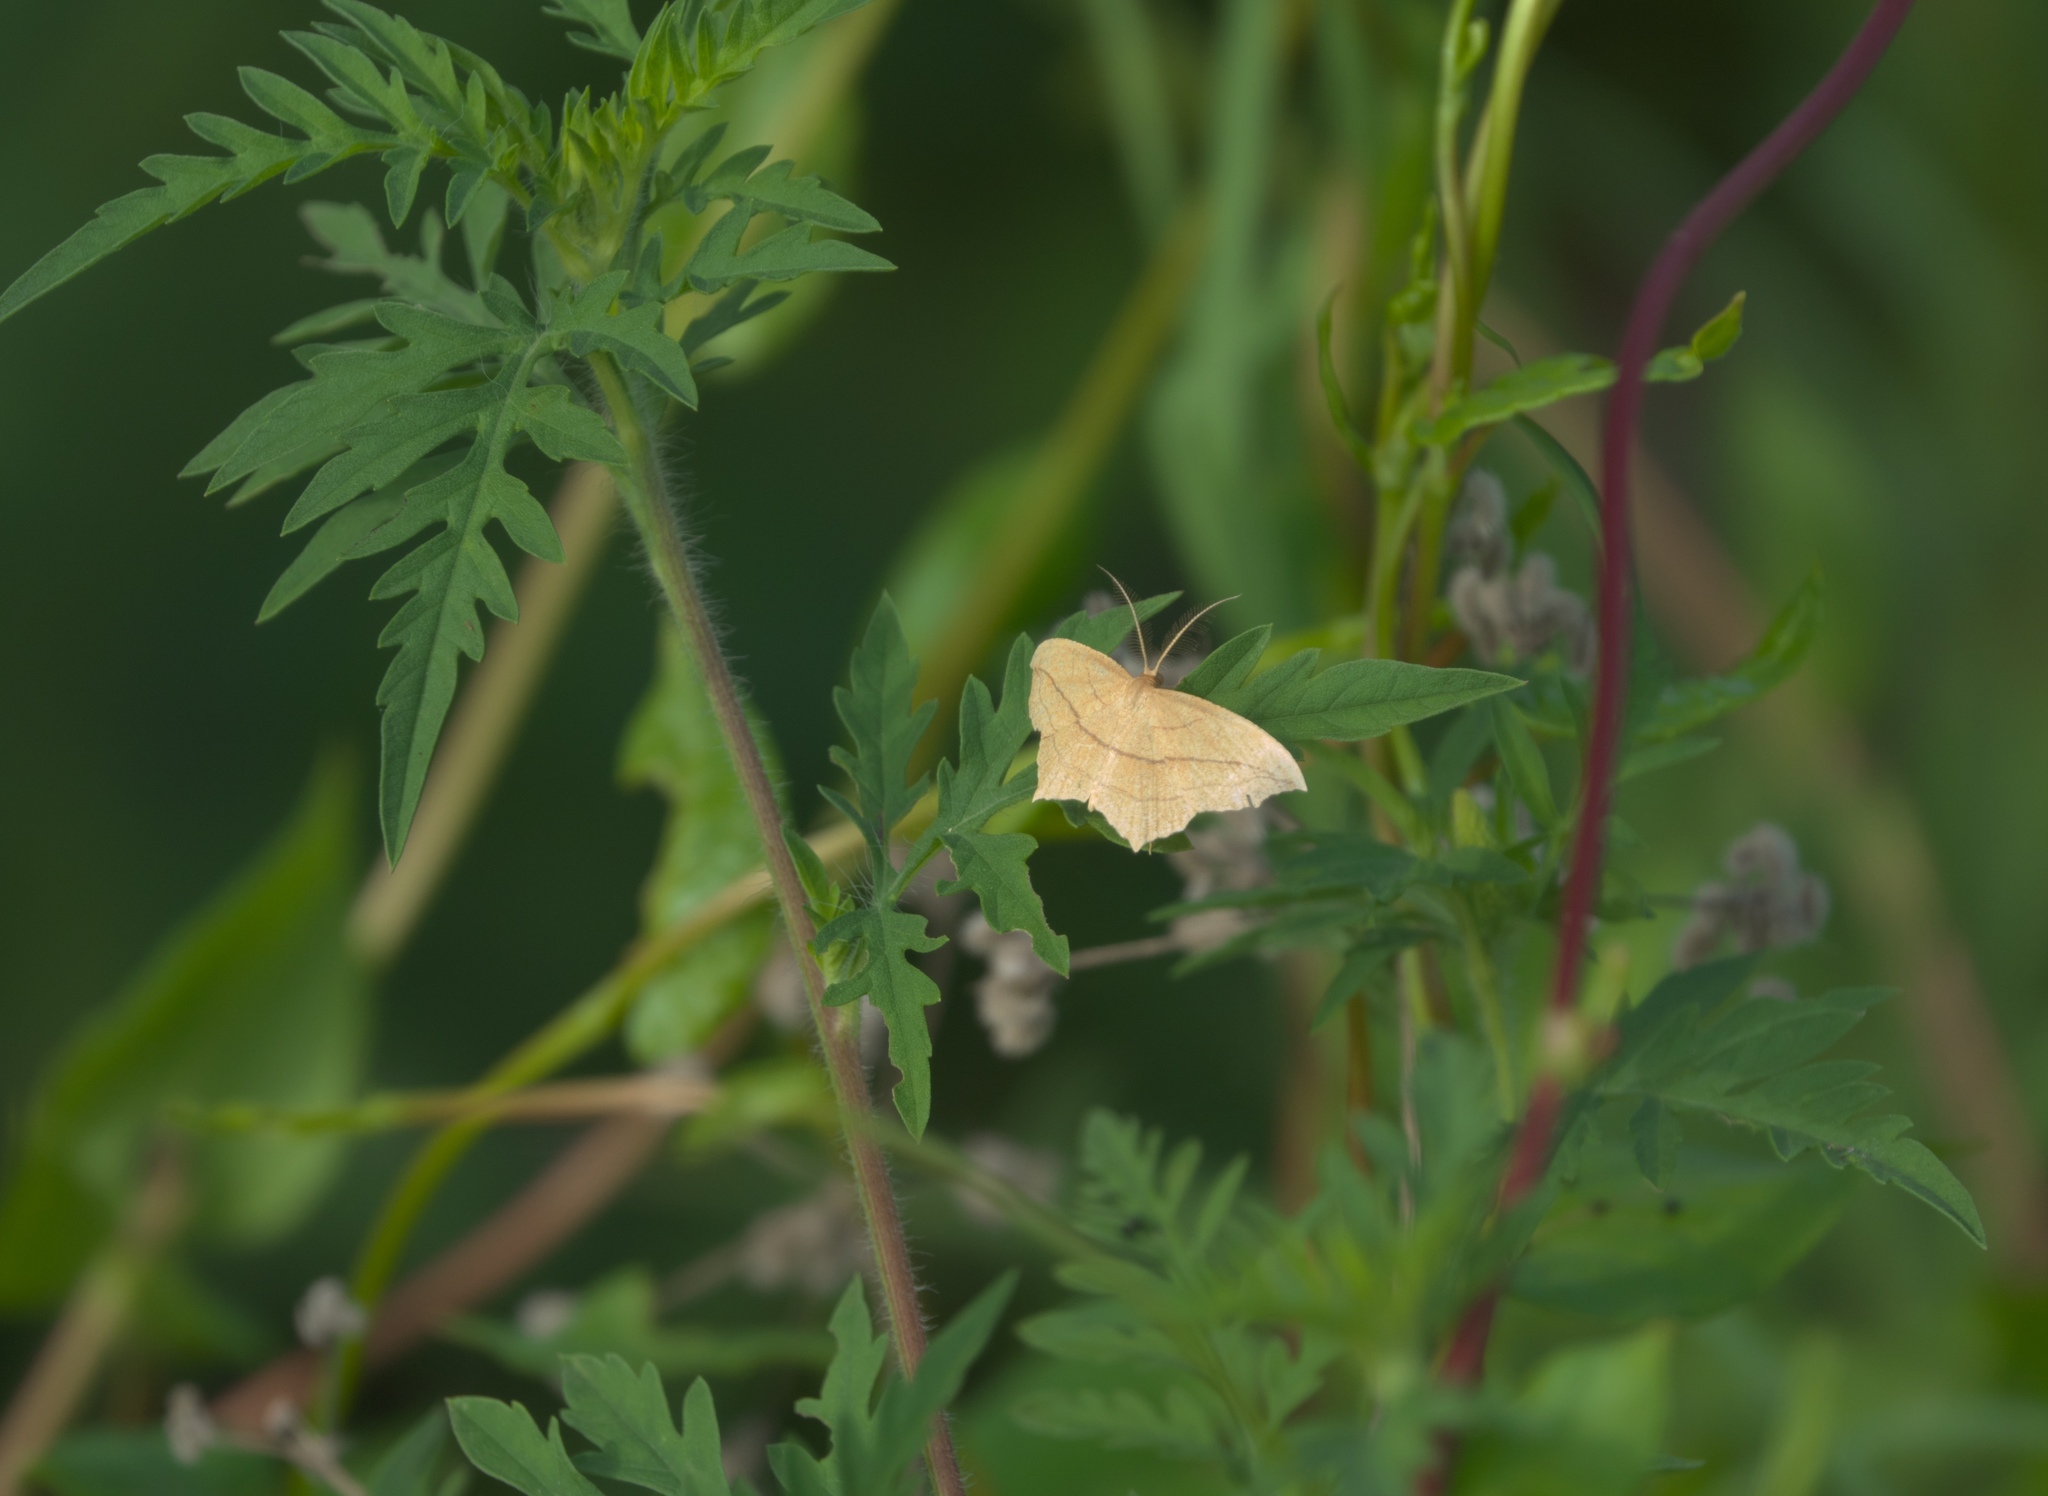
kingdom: Plantae
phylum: Tracheophyta
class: Magnoliopsida
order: Asterales
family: Asteraceae
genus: Ambrosia
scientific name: Ambrosia artemisiifolia
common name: Annual ragweed
